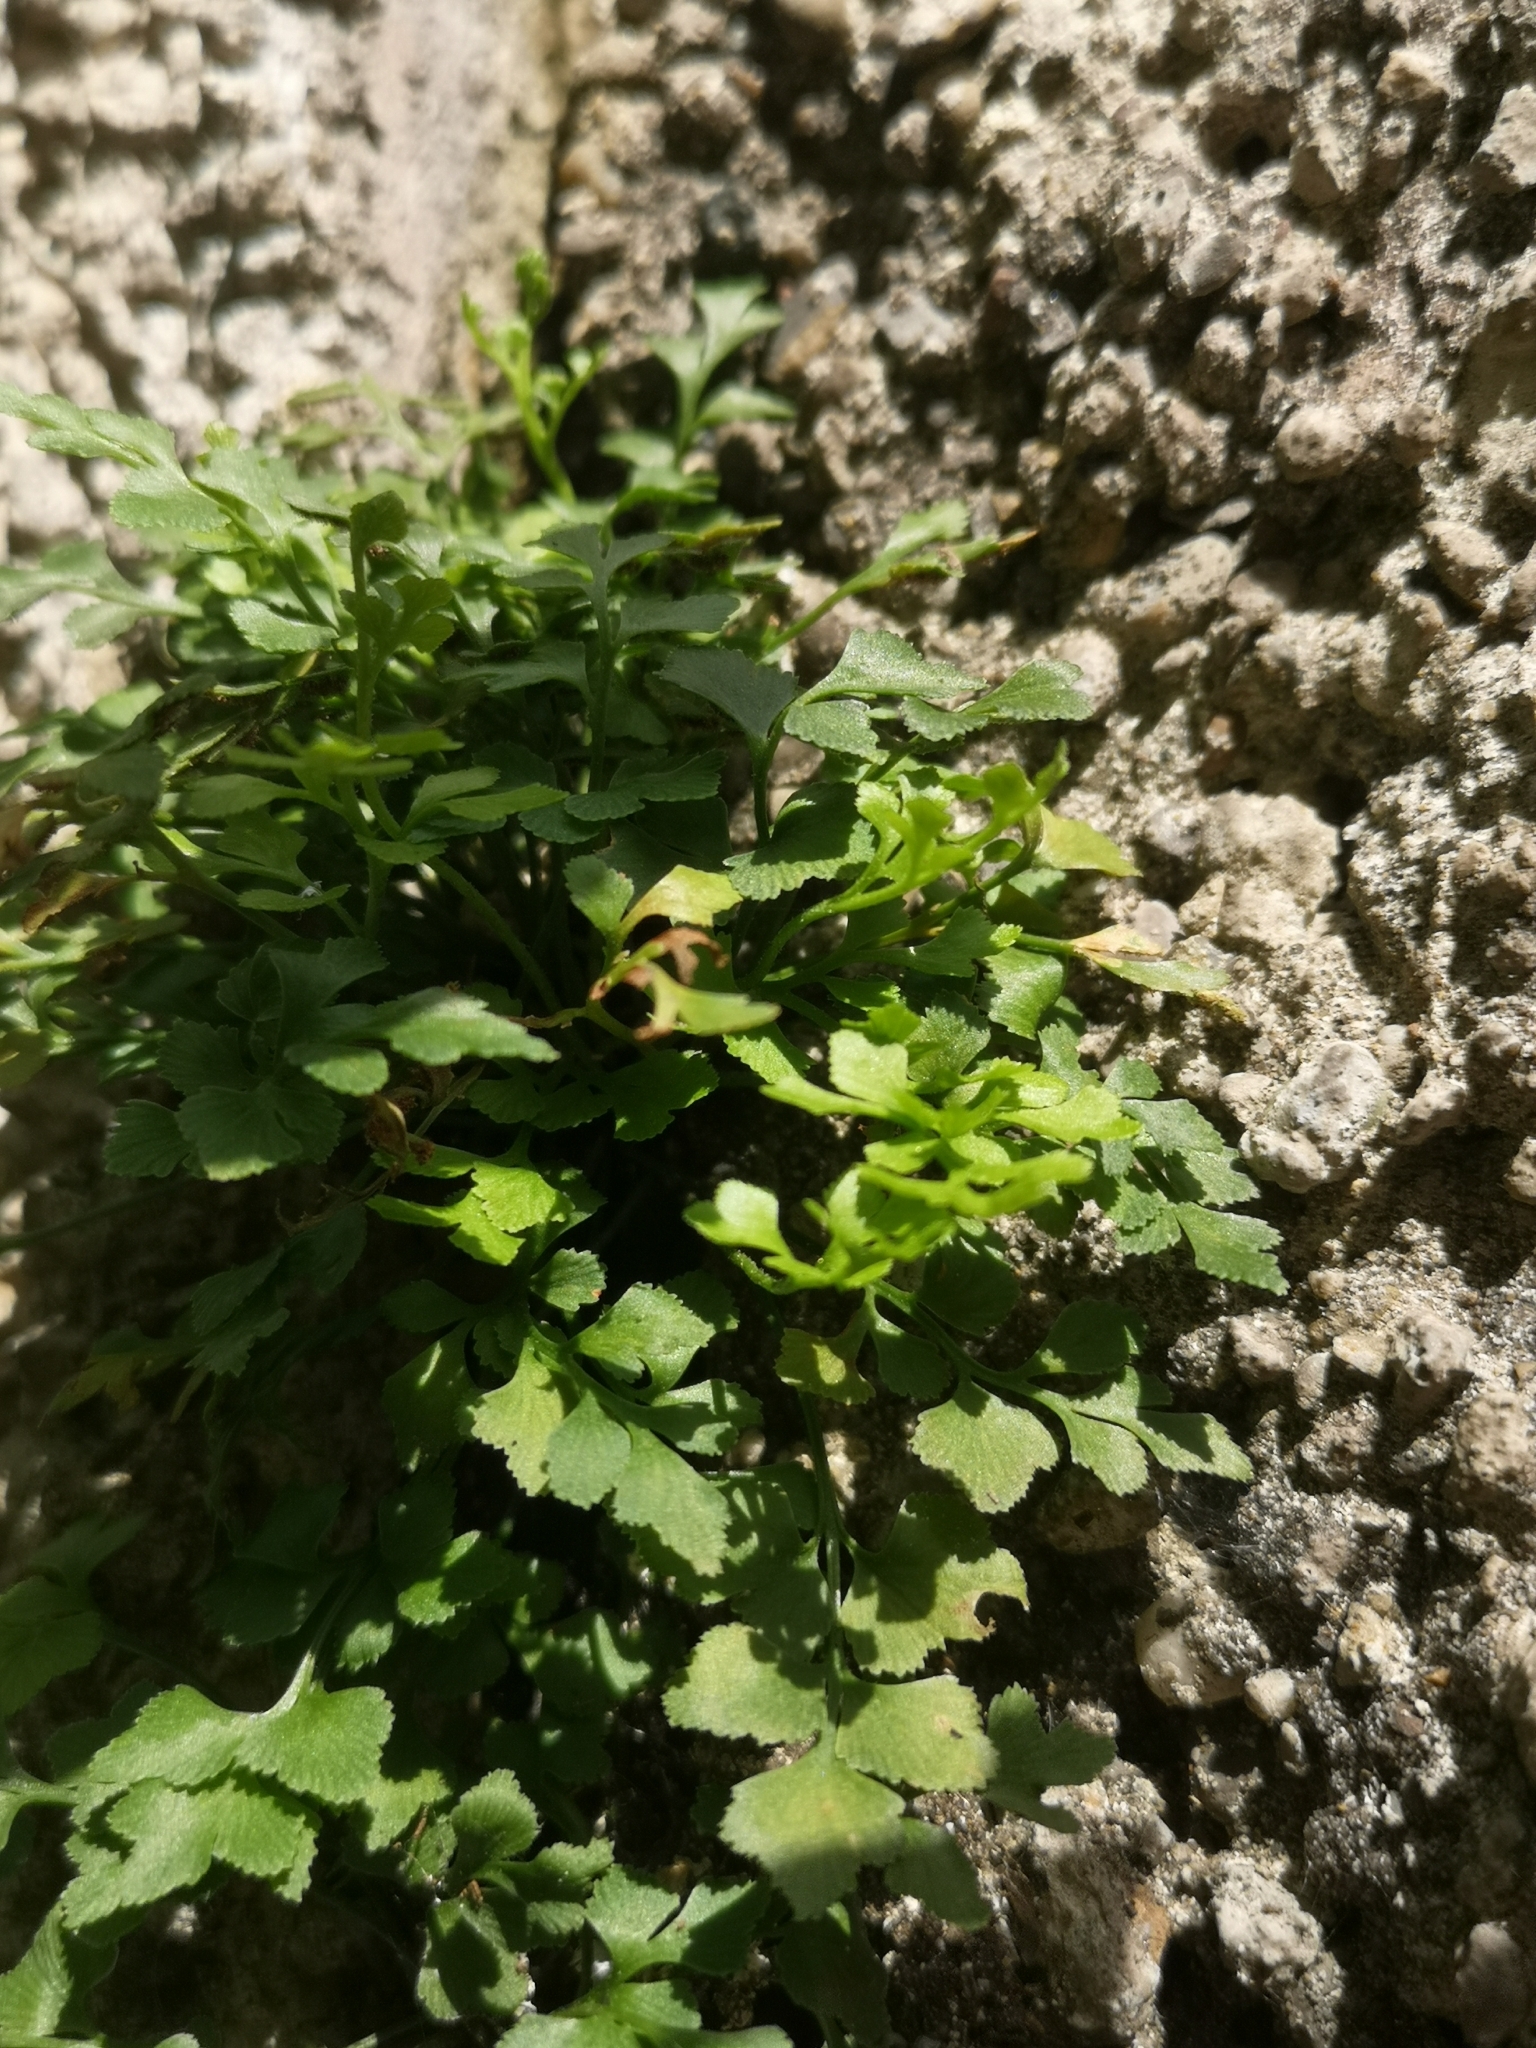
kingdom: Plantae
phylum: Tracheophyta
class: Polypodiopsida
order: Polypodiales
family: Aspleniaceae
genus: Asplenium
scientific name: Asplenium ruta-muraria
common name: Wall-rue
